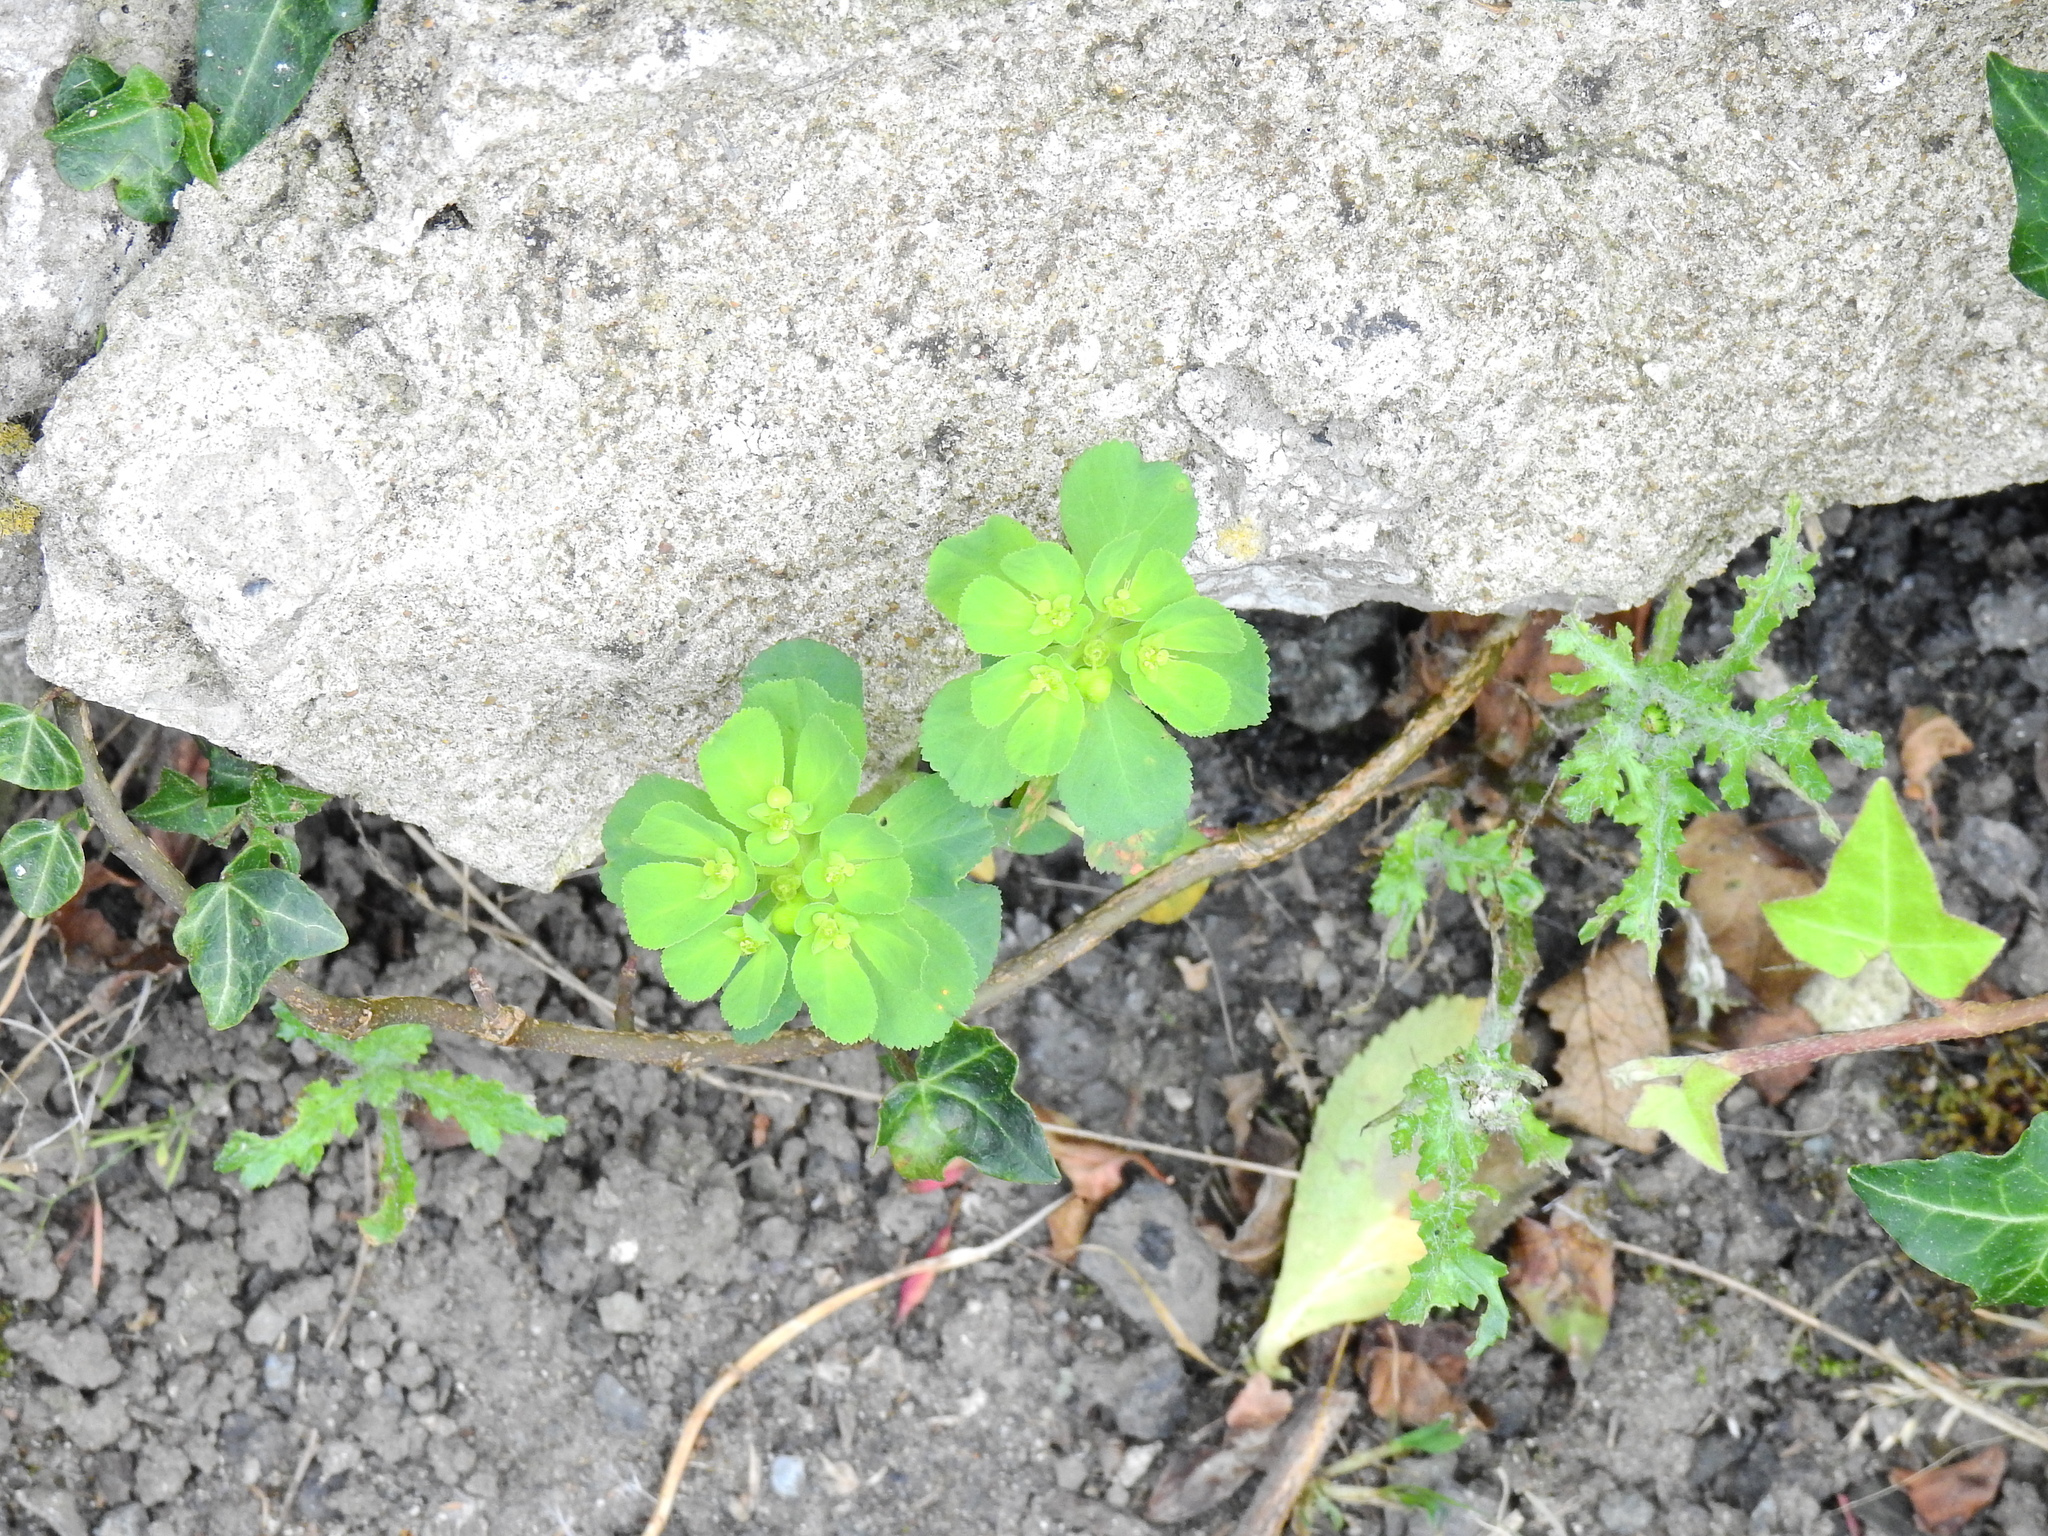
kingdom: Plantae
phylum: Tracheophyta
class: Magnoliopsida
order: Malpighiales
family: Euphorbiaceae
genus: Euphorbia
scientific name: Euphorbia helioscopia
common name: Sun spurge
